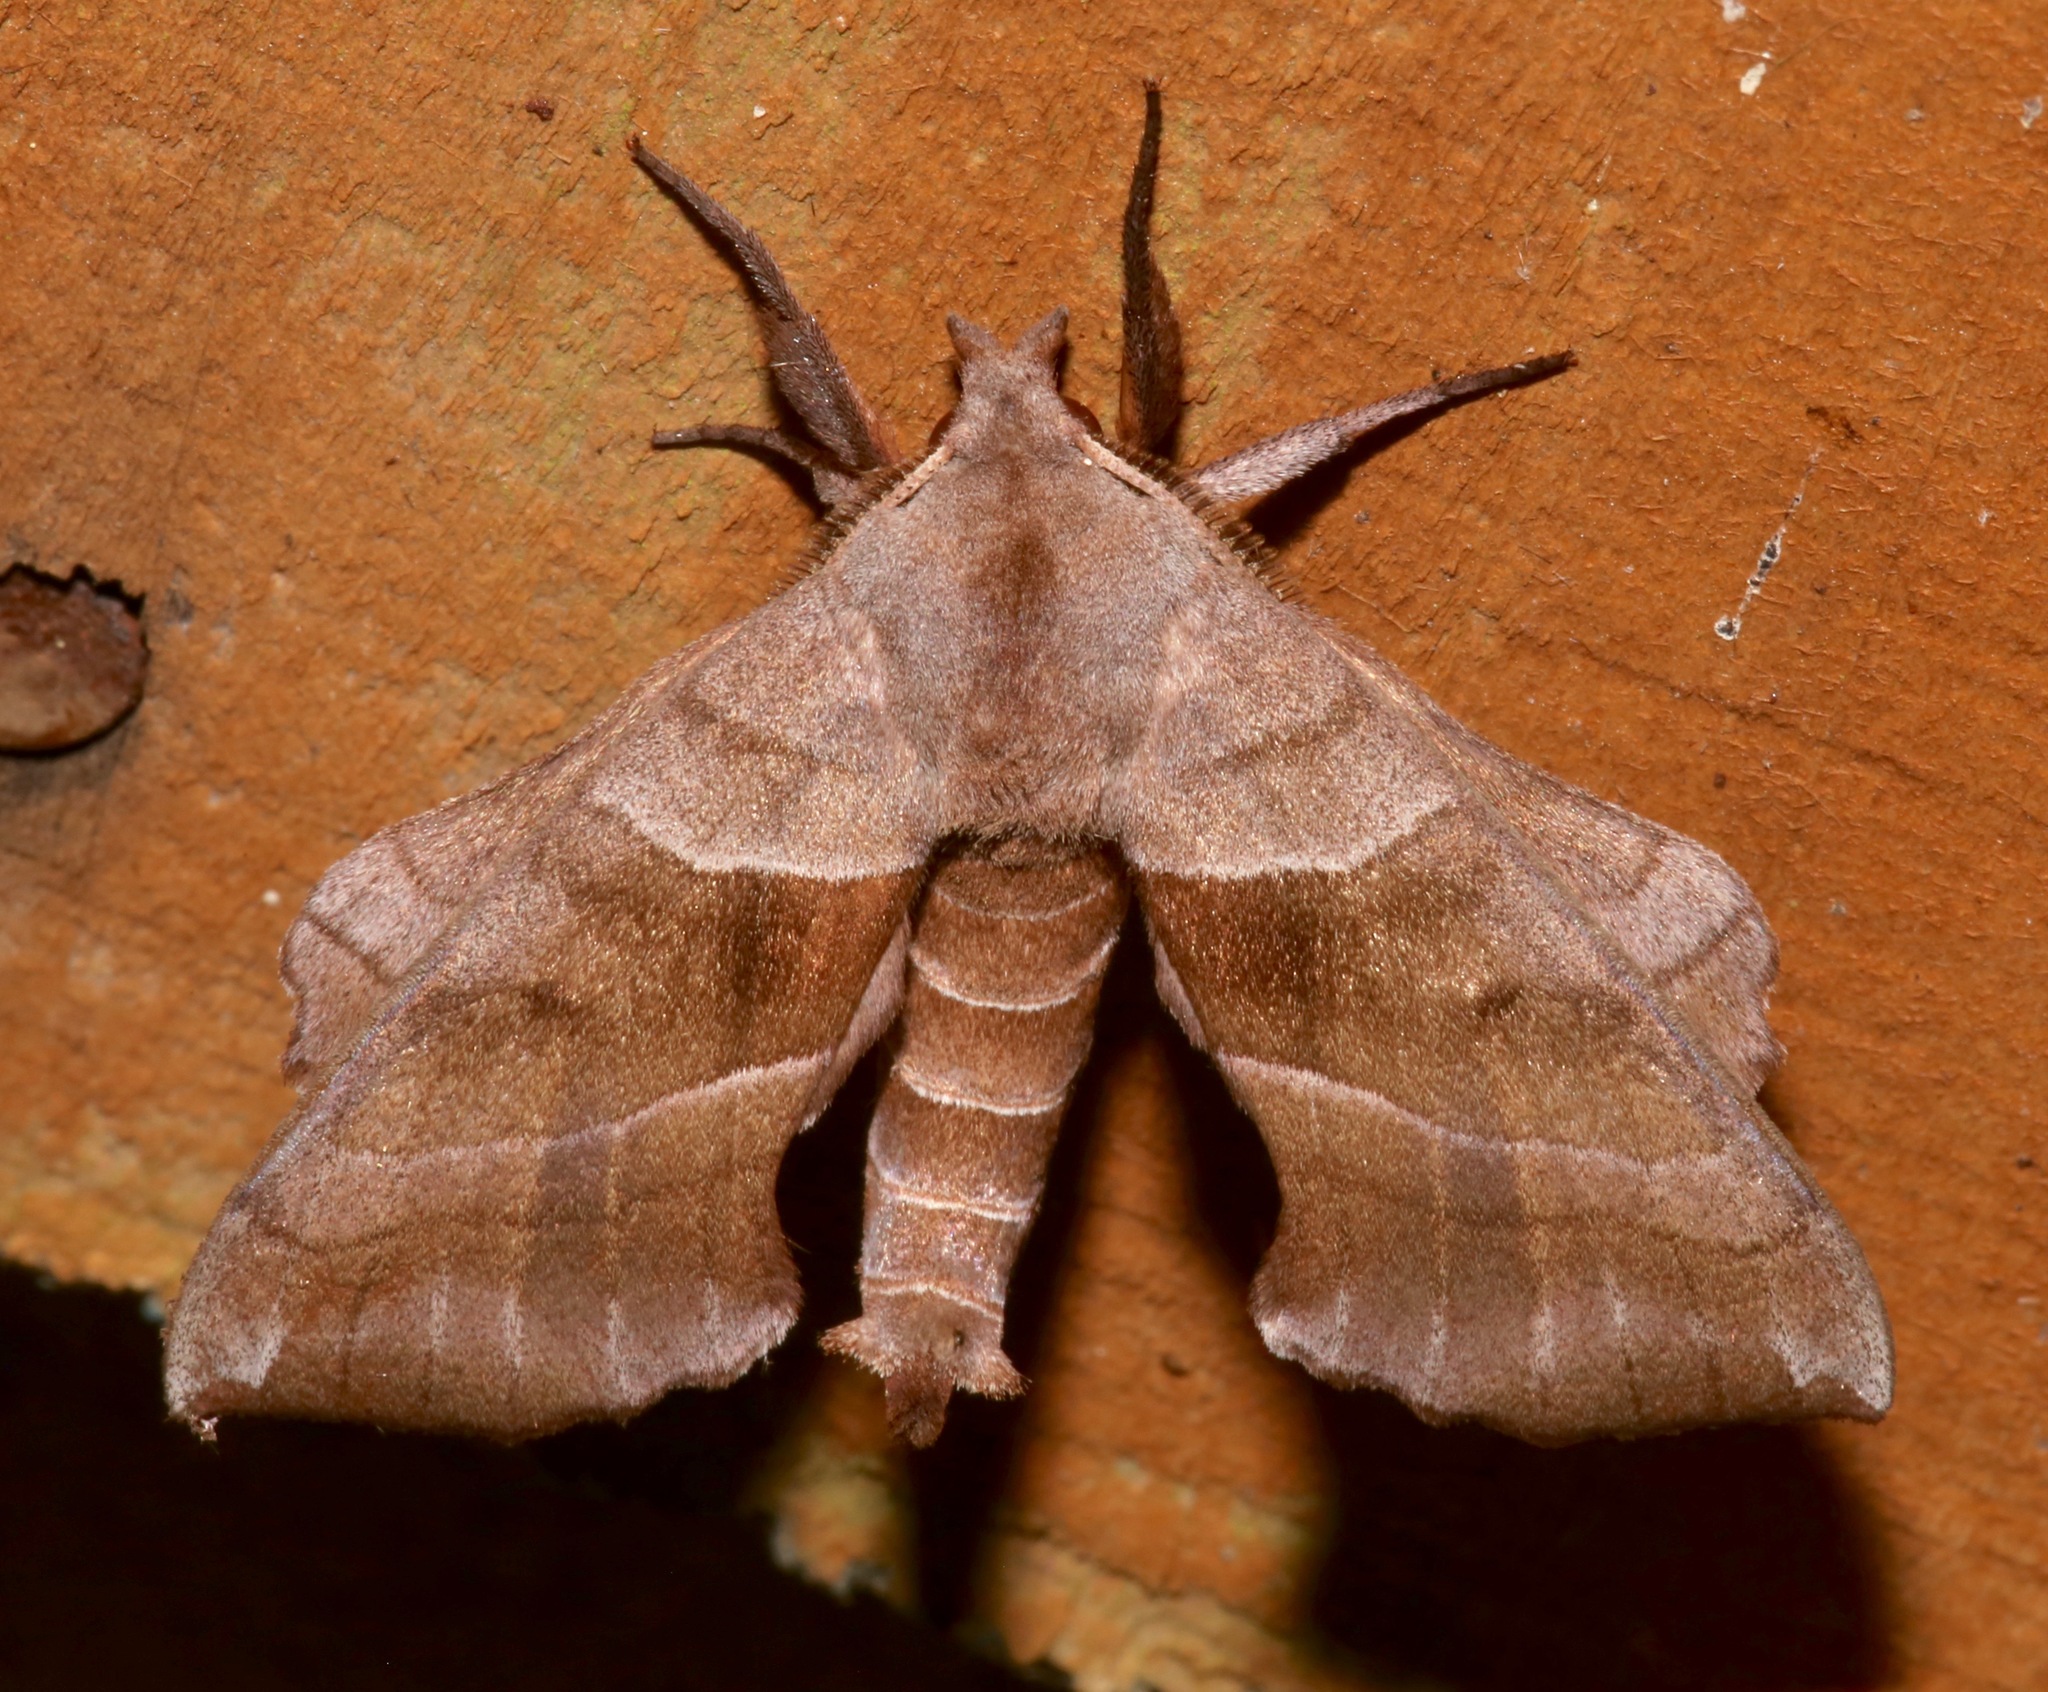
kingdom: Animalia
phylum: Arthropoda
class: Insecta
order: Lepidoptera
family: Sphingidae
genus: Amorpha
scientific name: Amorpha juglandis
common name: Walnut sphinx
